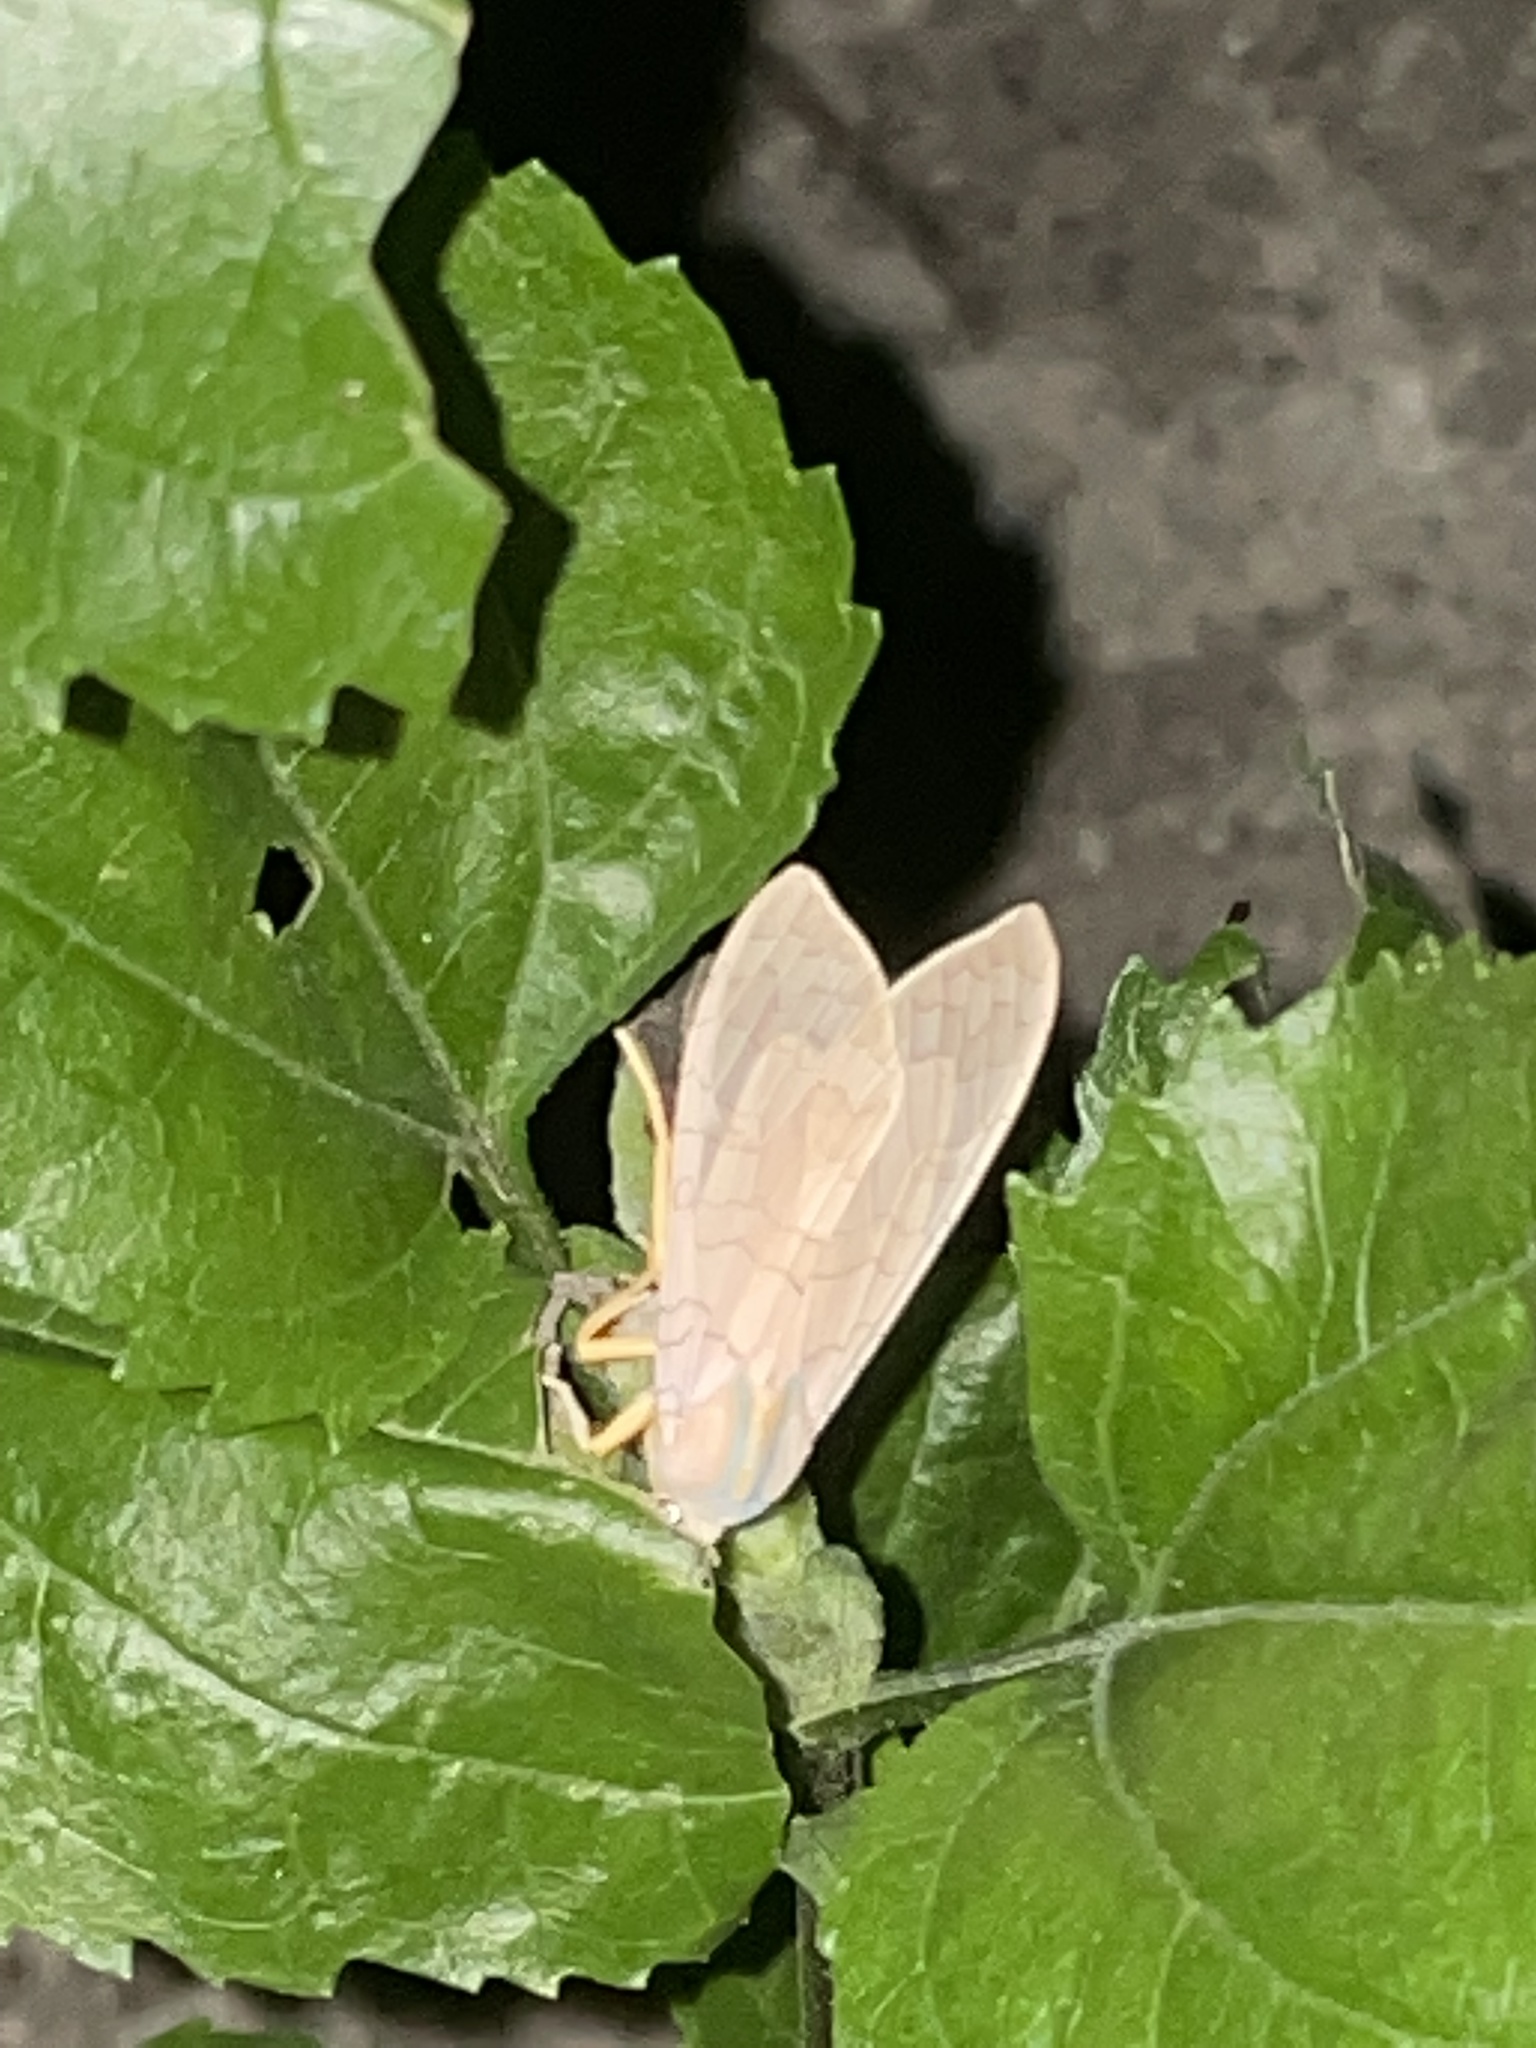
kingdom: Animalia
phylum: Arthropoda
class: Insecta
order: Lepidoptera
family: Erebidae
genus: Halysidota
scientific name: Halysidota
